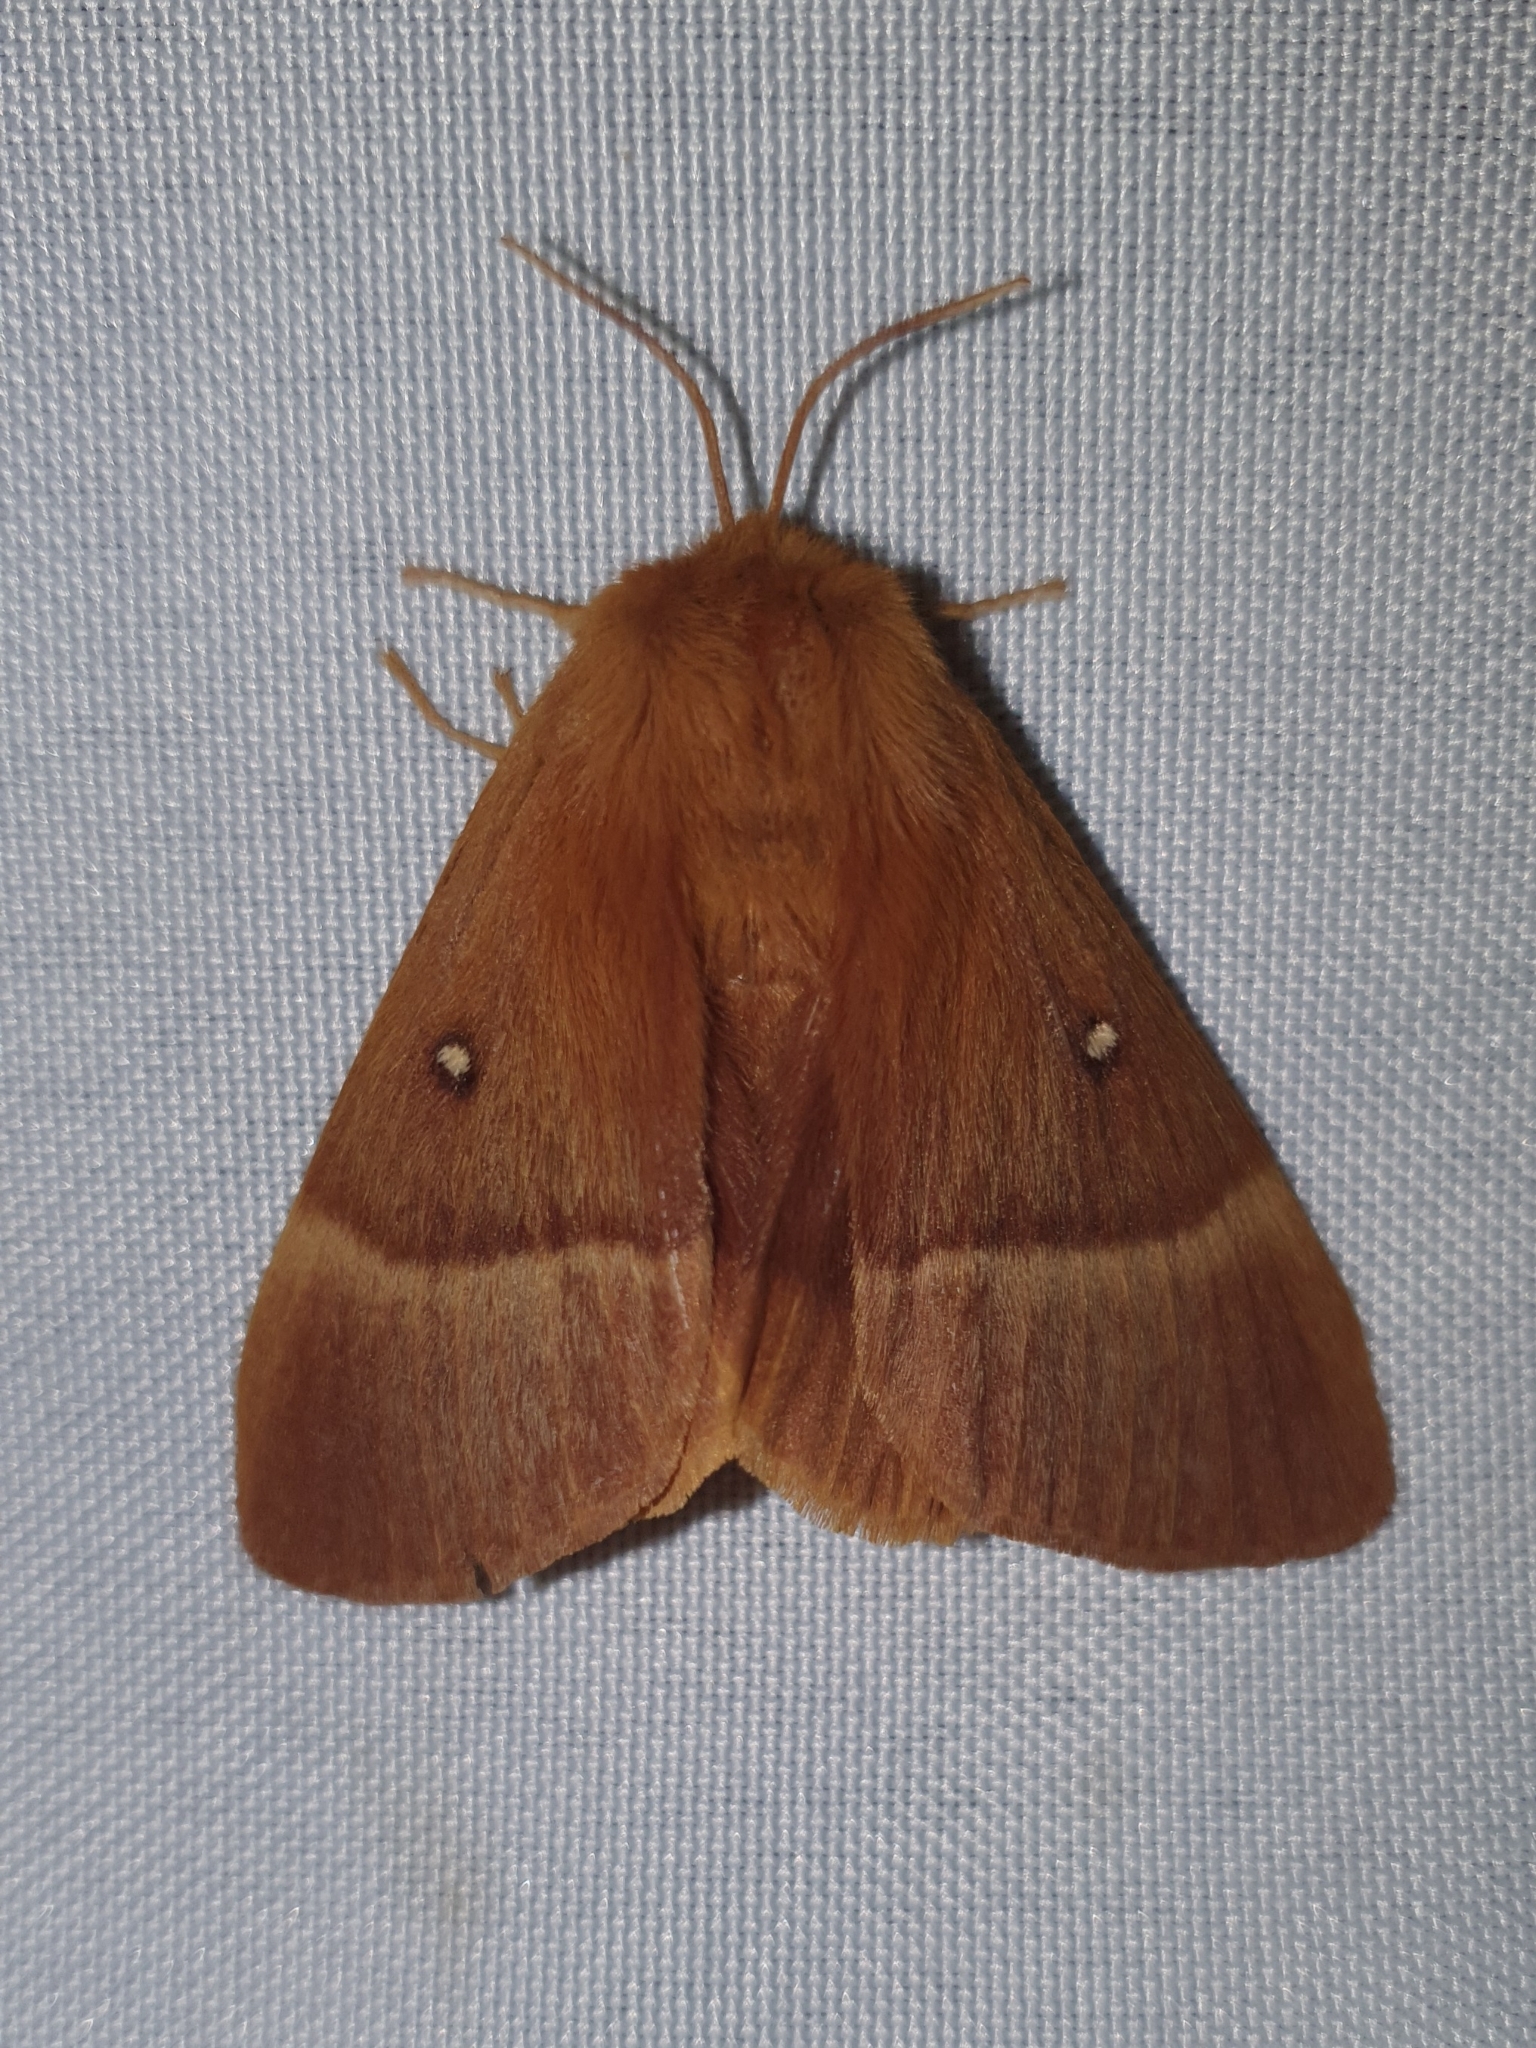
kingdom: Animalia
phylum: Arthropoda
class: Insecta
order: Lepidoptera
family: Lasiocampidae
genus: Lasiocampa
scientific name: Lasiocampa quercus
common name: Oak eggar
